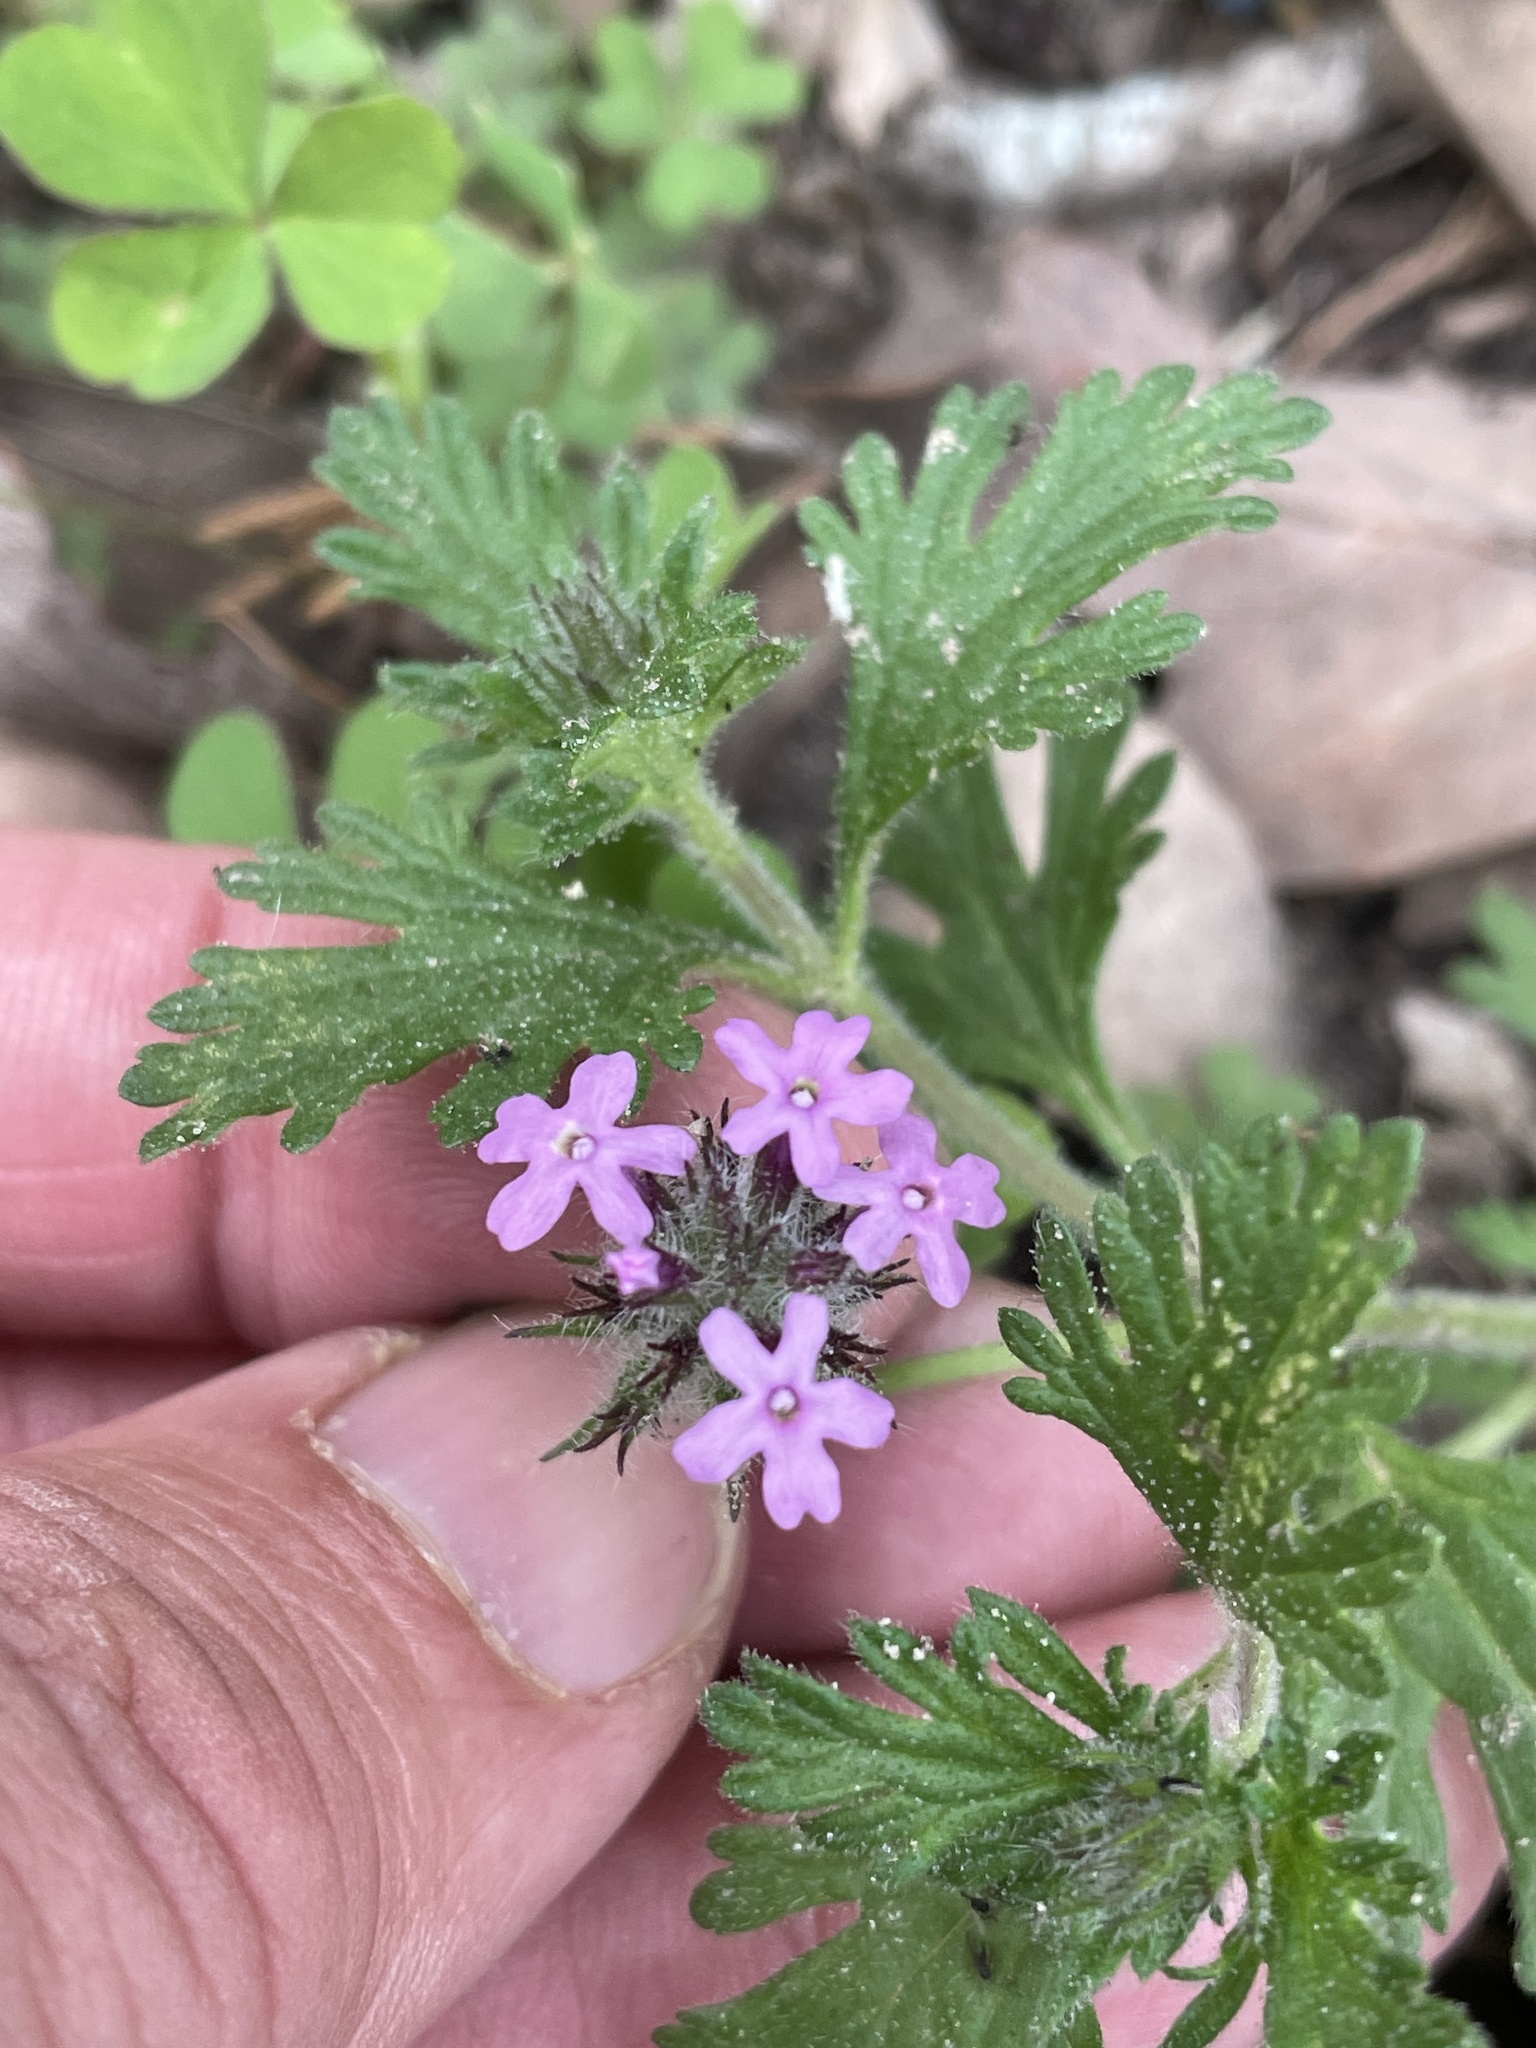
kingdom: Plantae
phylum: Tracheophyta
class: Magnoliopsida
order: Lamiales
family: Verbenaceae
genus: Verbena
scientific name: Verbena pumila
